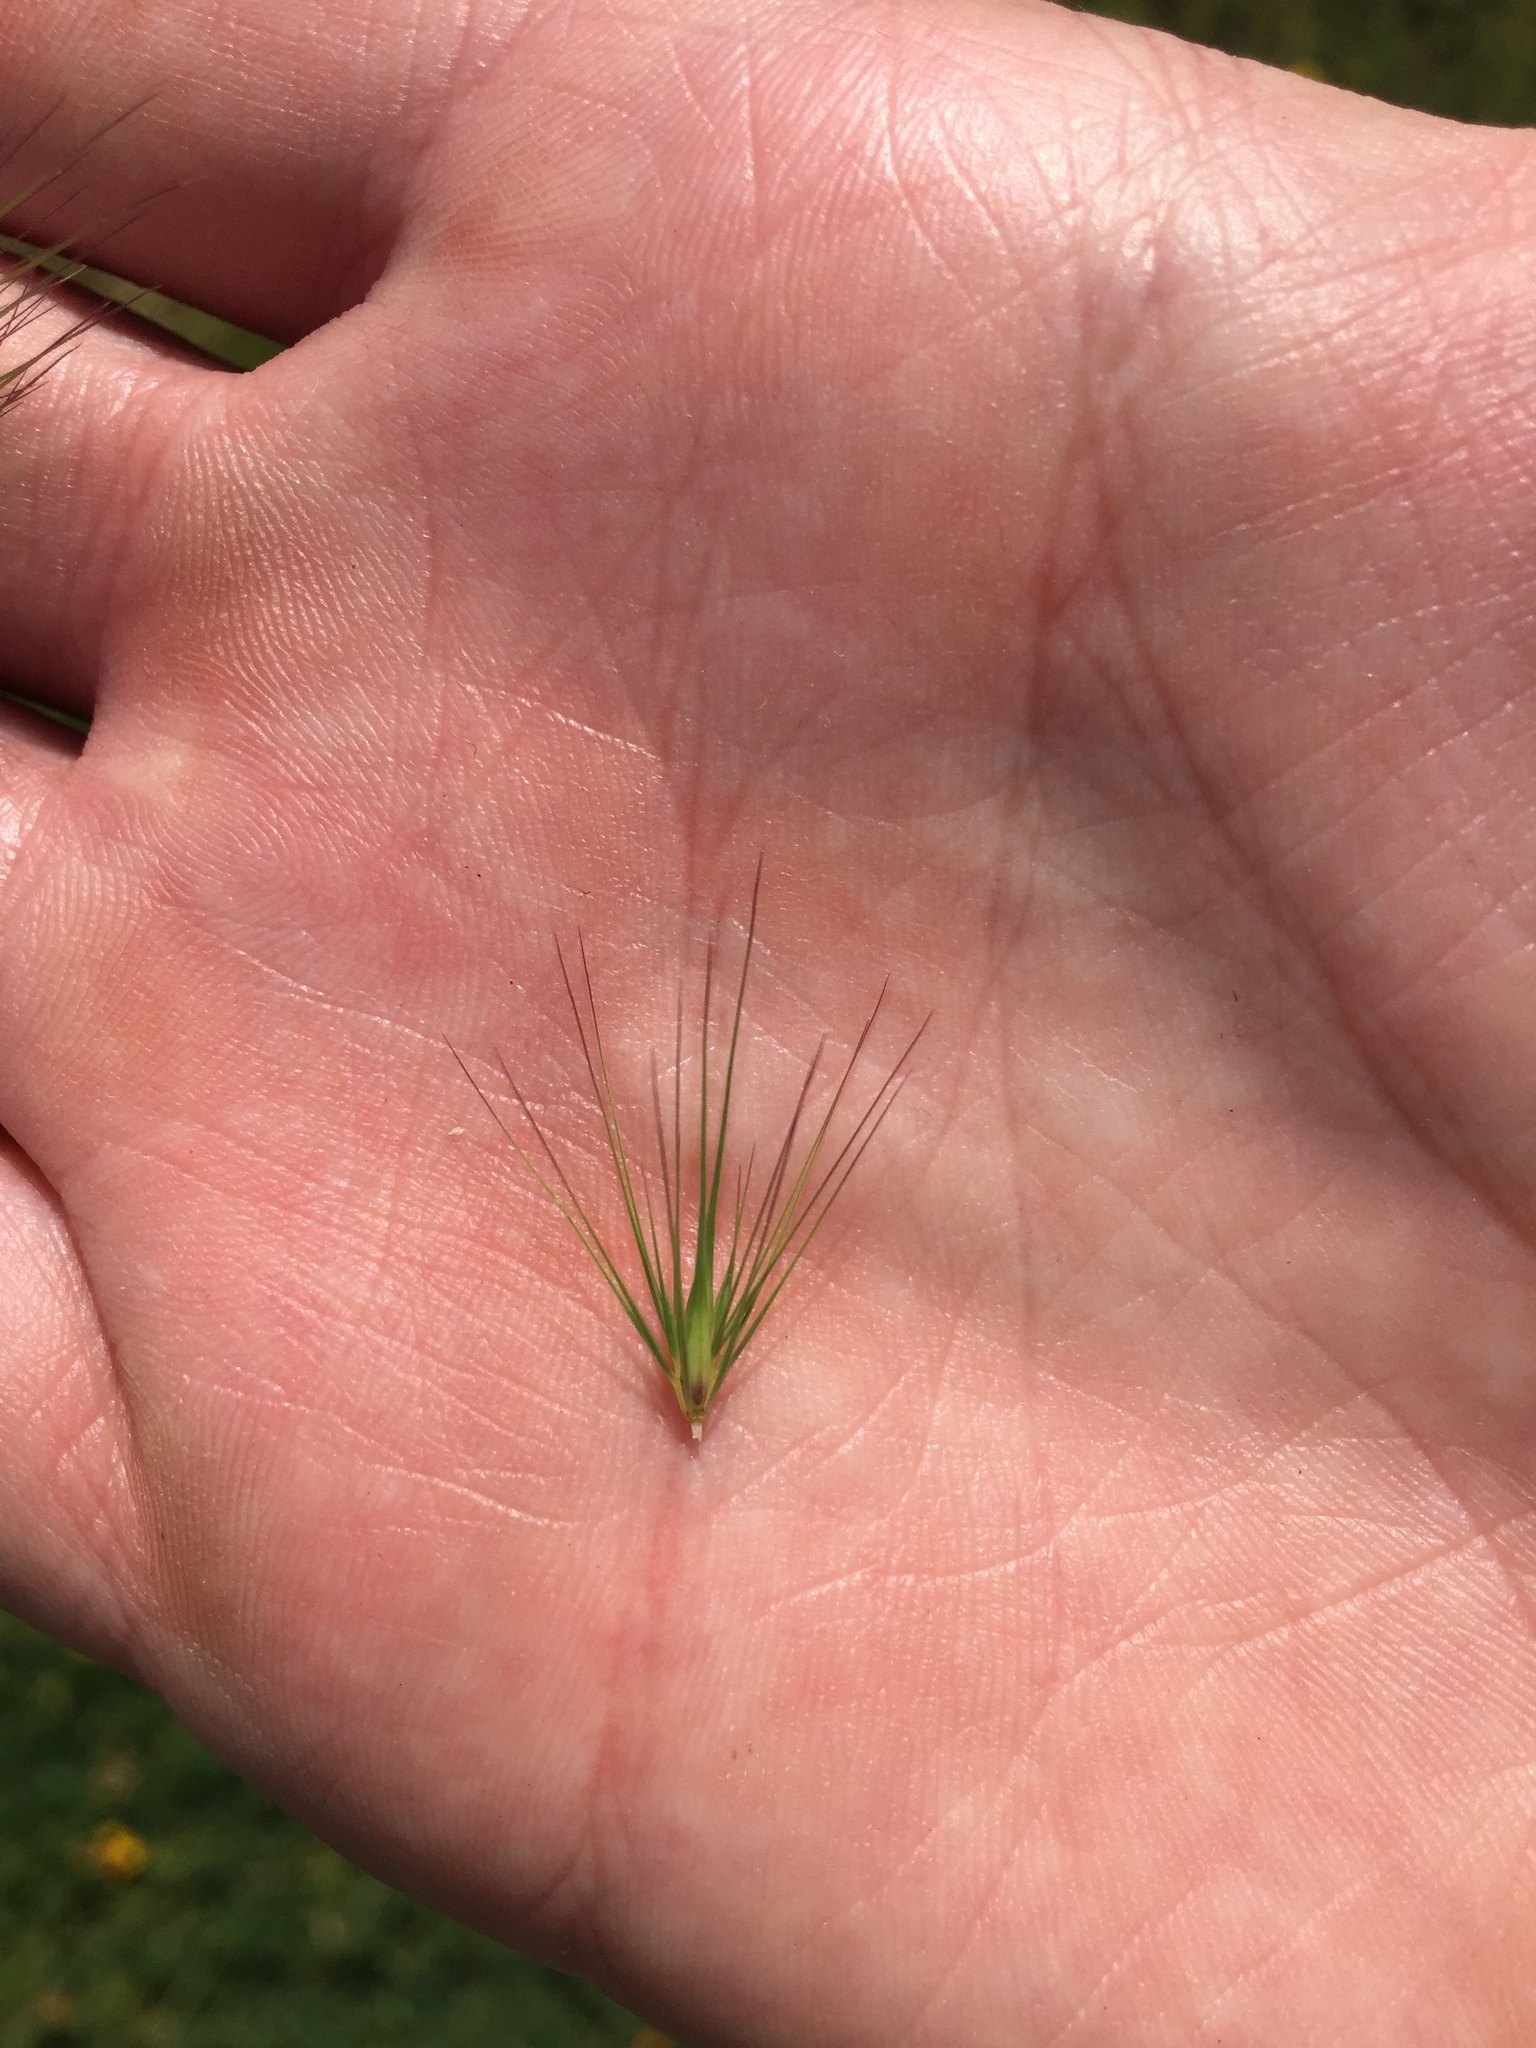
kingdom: Plantae
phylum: Tracheophyta
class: Liliopsida
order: Poales
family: Poaceae
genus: Hordeum
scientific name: Hordeum marinum
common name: Sea barley
